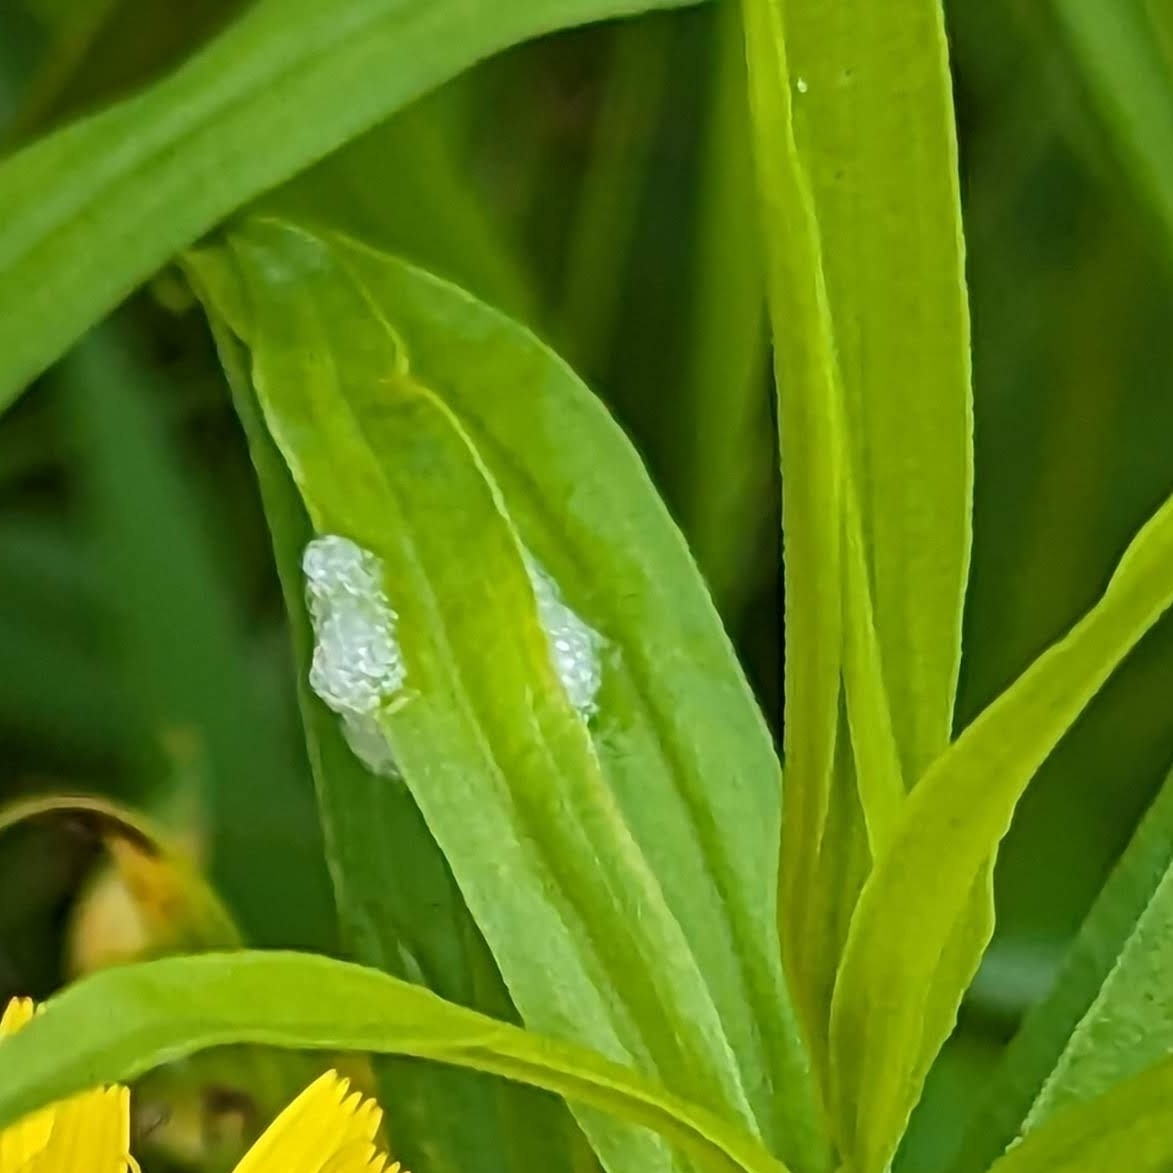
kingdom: Animalia
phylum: Arthropoda
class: Insecta
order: Hemiptera
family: Aphrophoridae
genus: Philaenus
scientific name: Philaenus spumarius
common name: Meadow spittlebug
